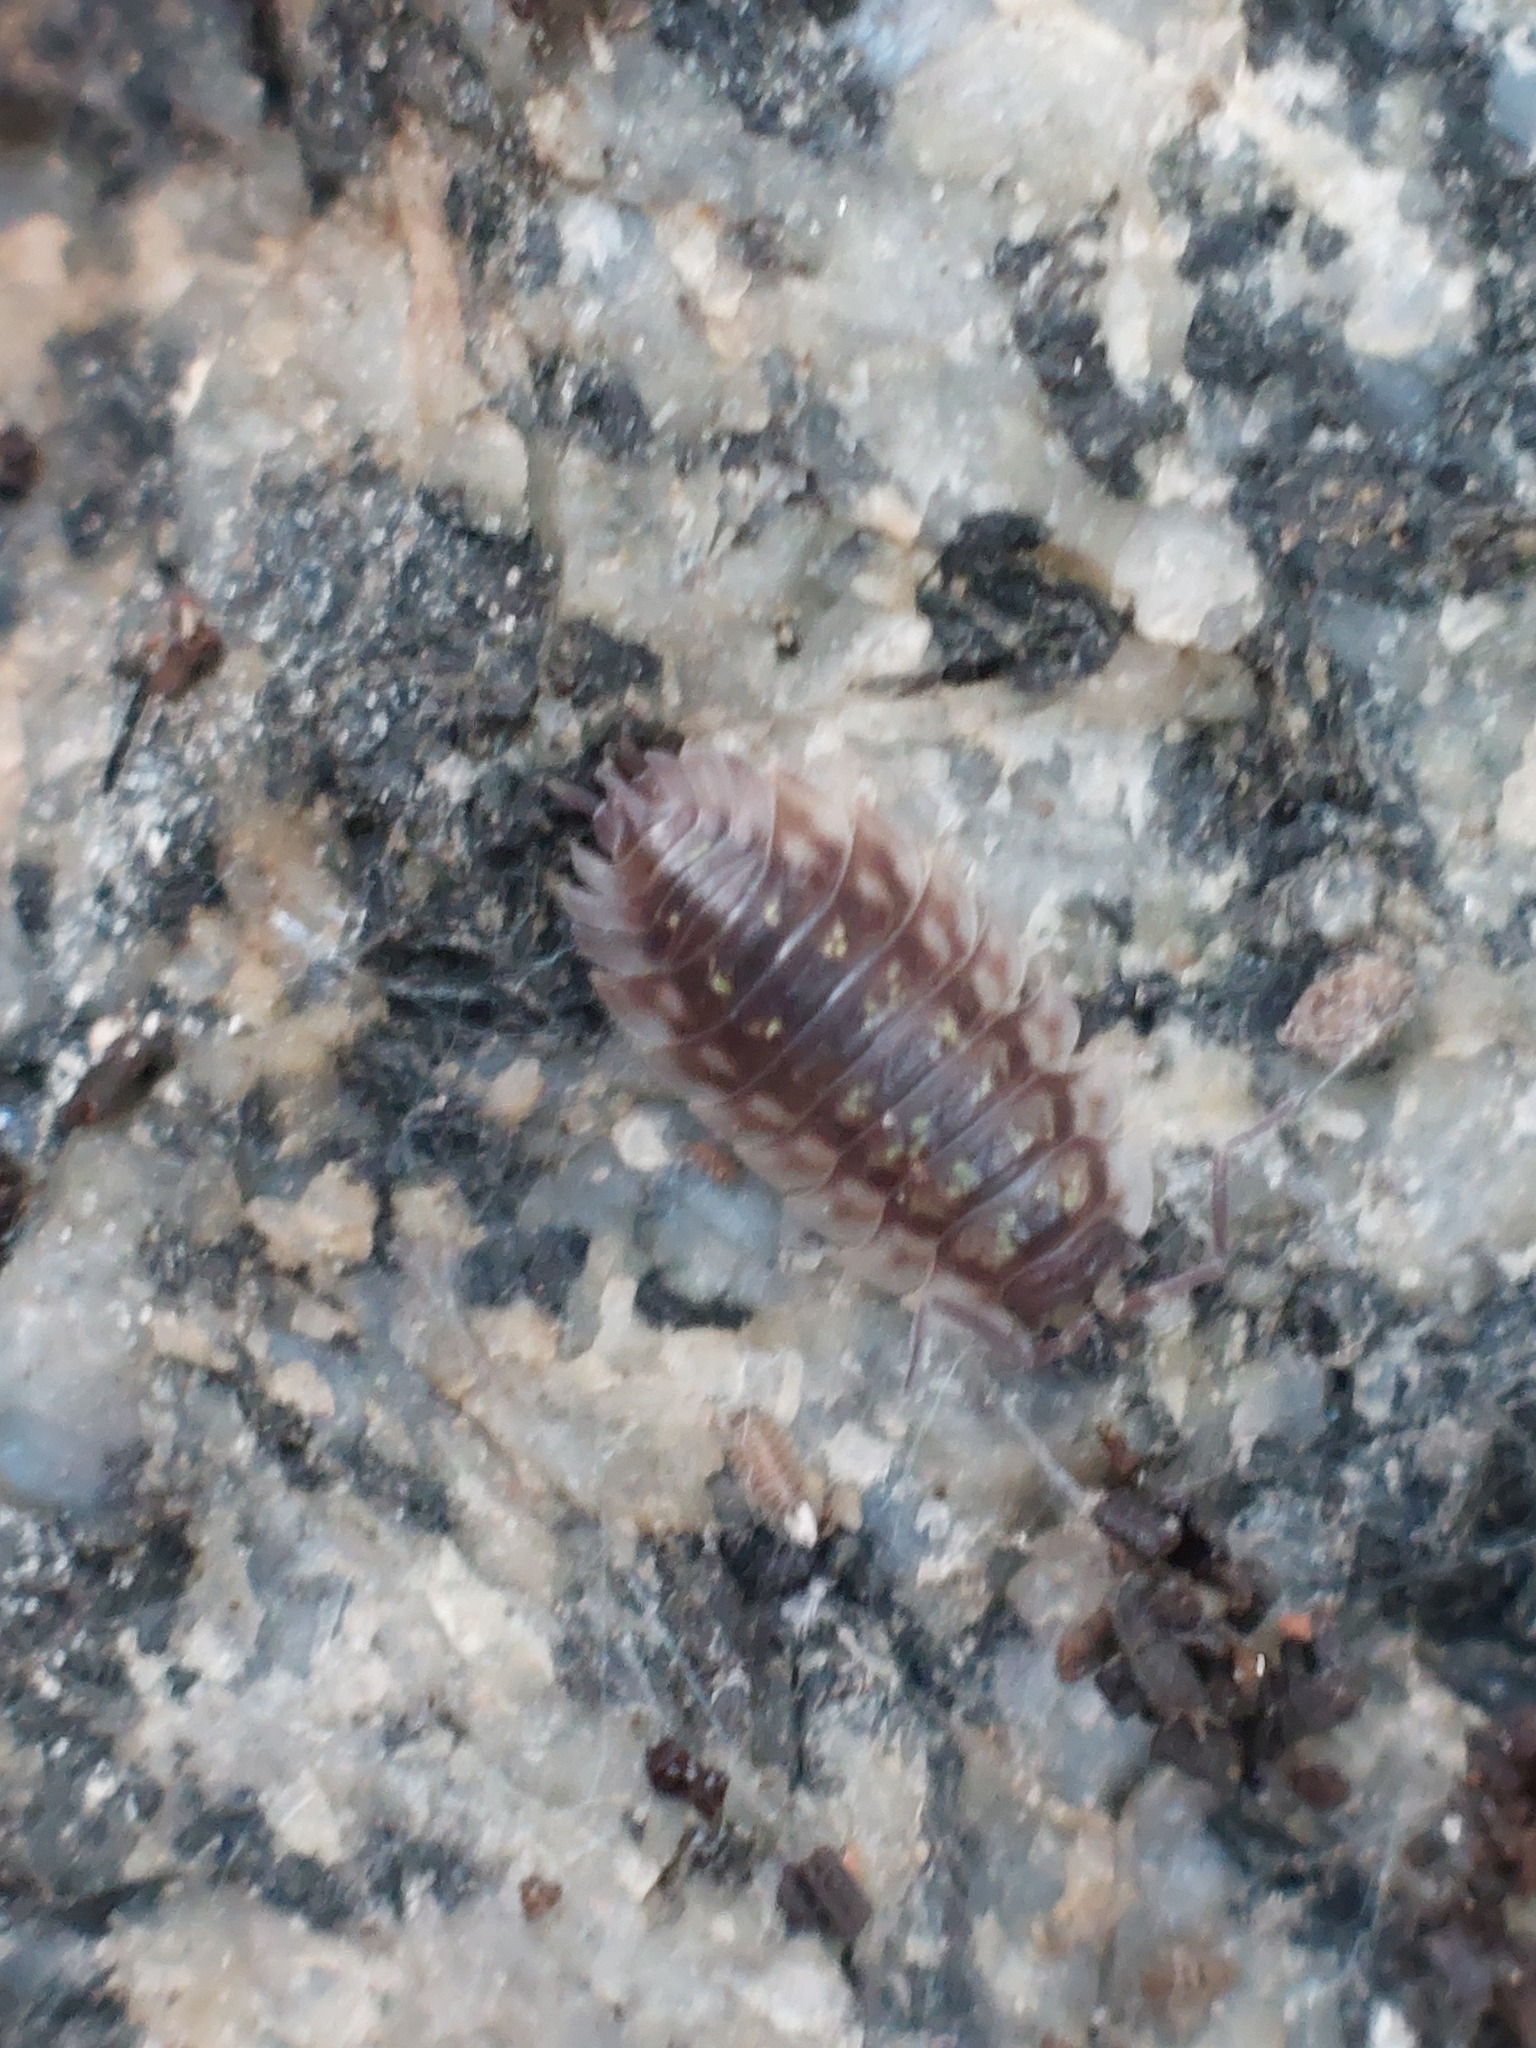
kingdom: Animalia
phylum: Arthropoda
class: Malacostraca
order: Isopoda
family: Oniscidae
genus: Oniscus
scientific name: Oniscus asellus
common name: Common shiny woodlouse
